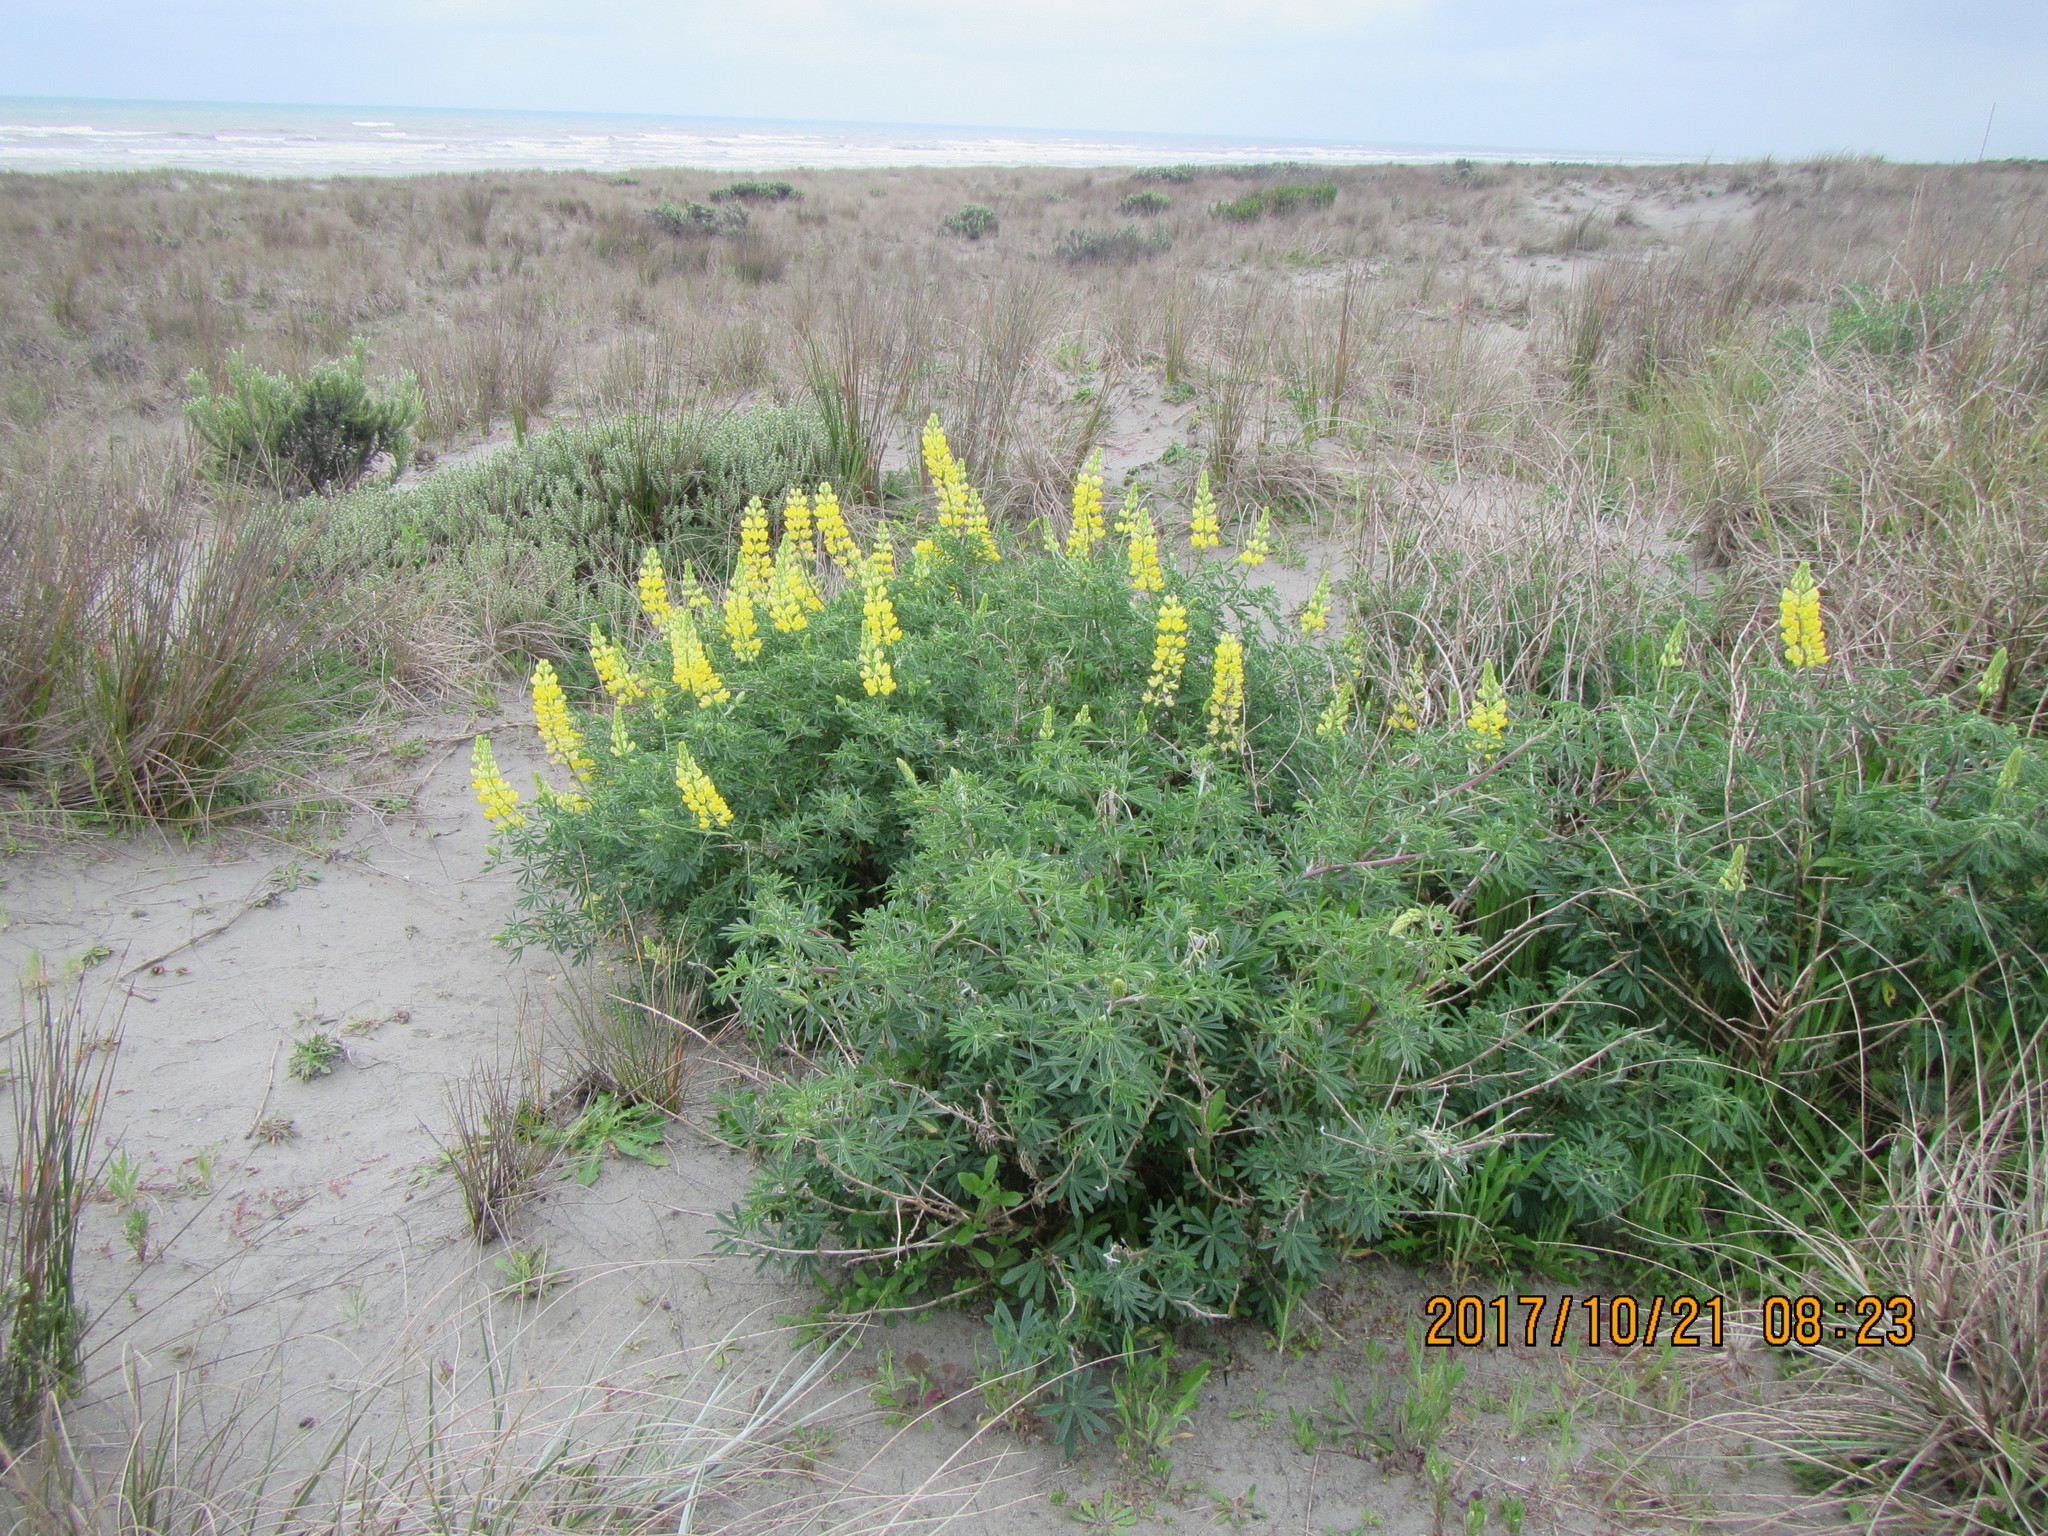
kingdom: Plantae
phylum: Tracheophyta
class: Magnoliopsida
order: Fabales
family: Fabaceae
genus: Lupinus
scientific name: Lupinus arboreus
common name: Yellow bush lupine
